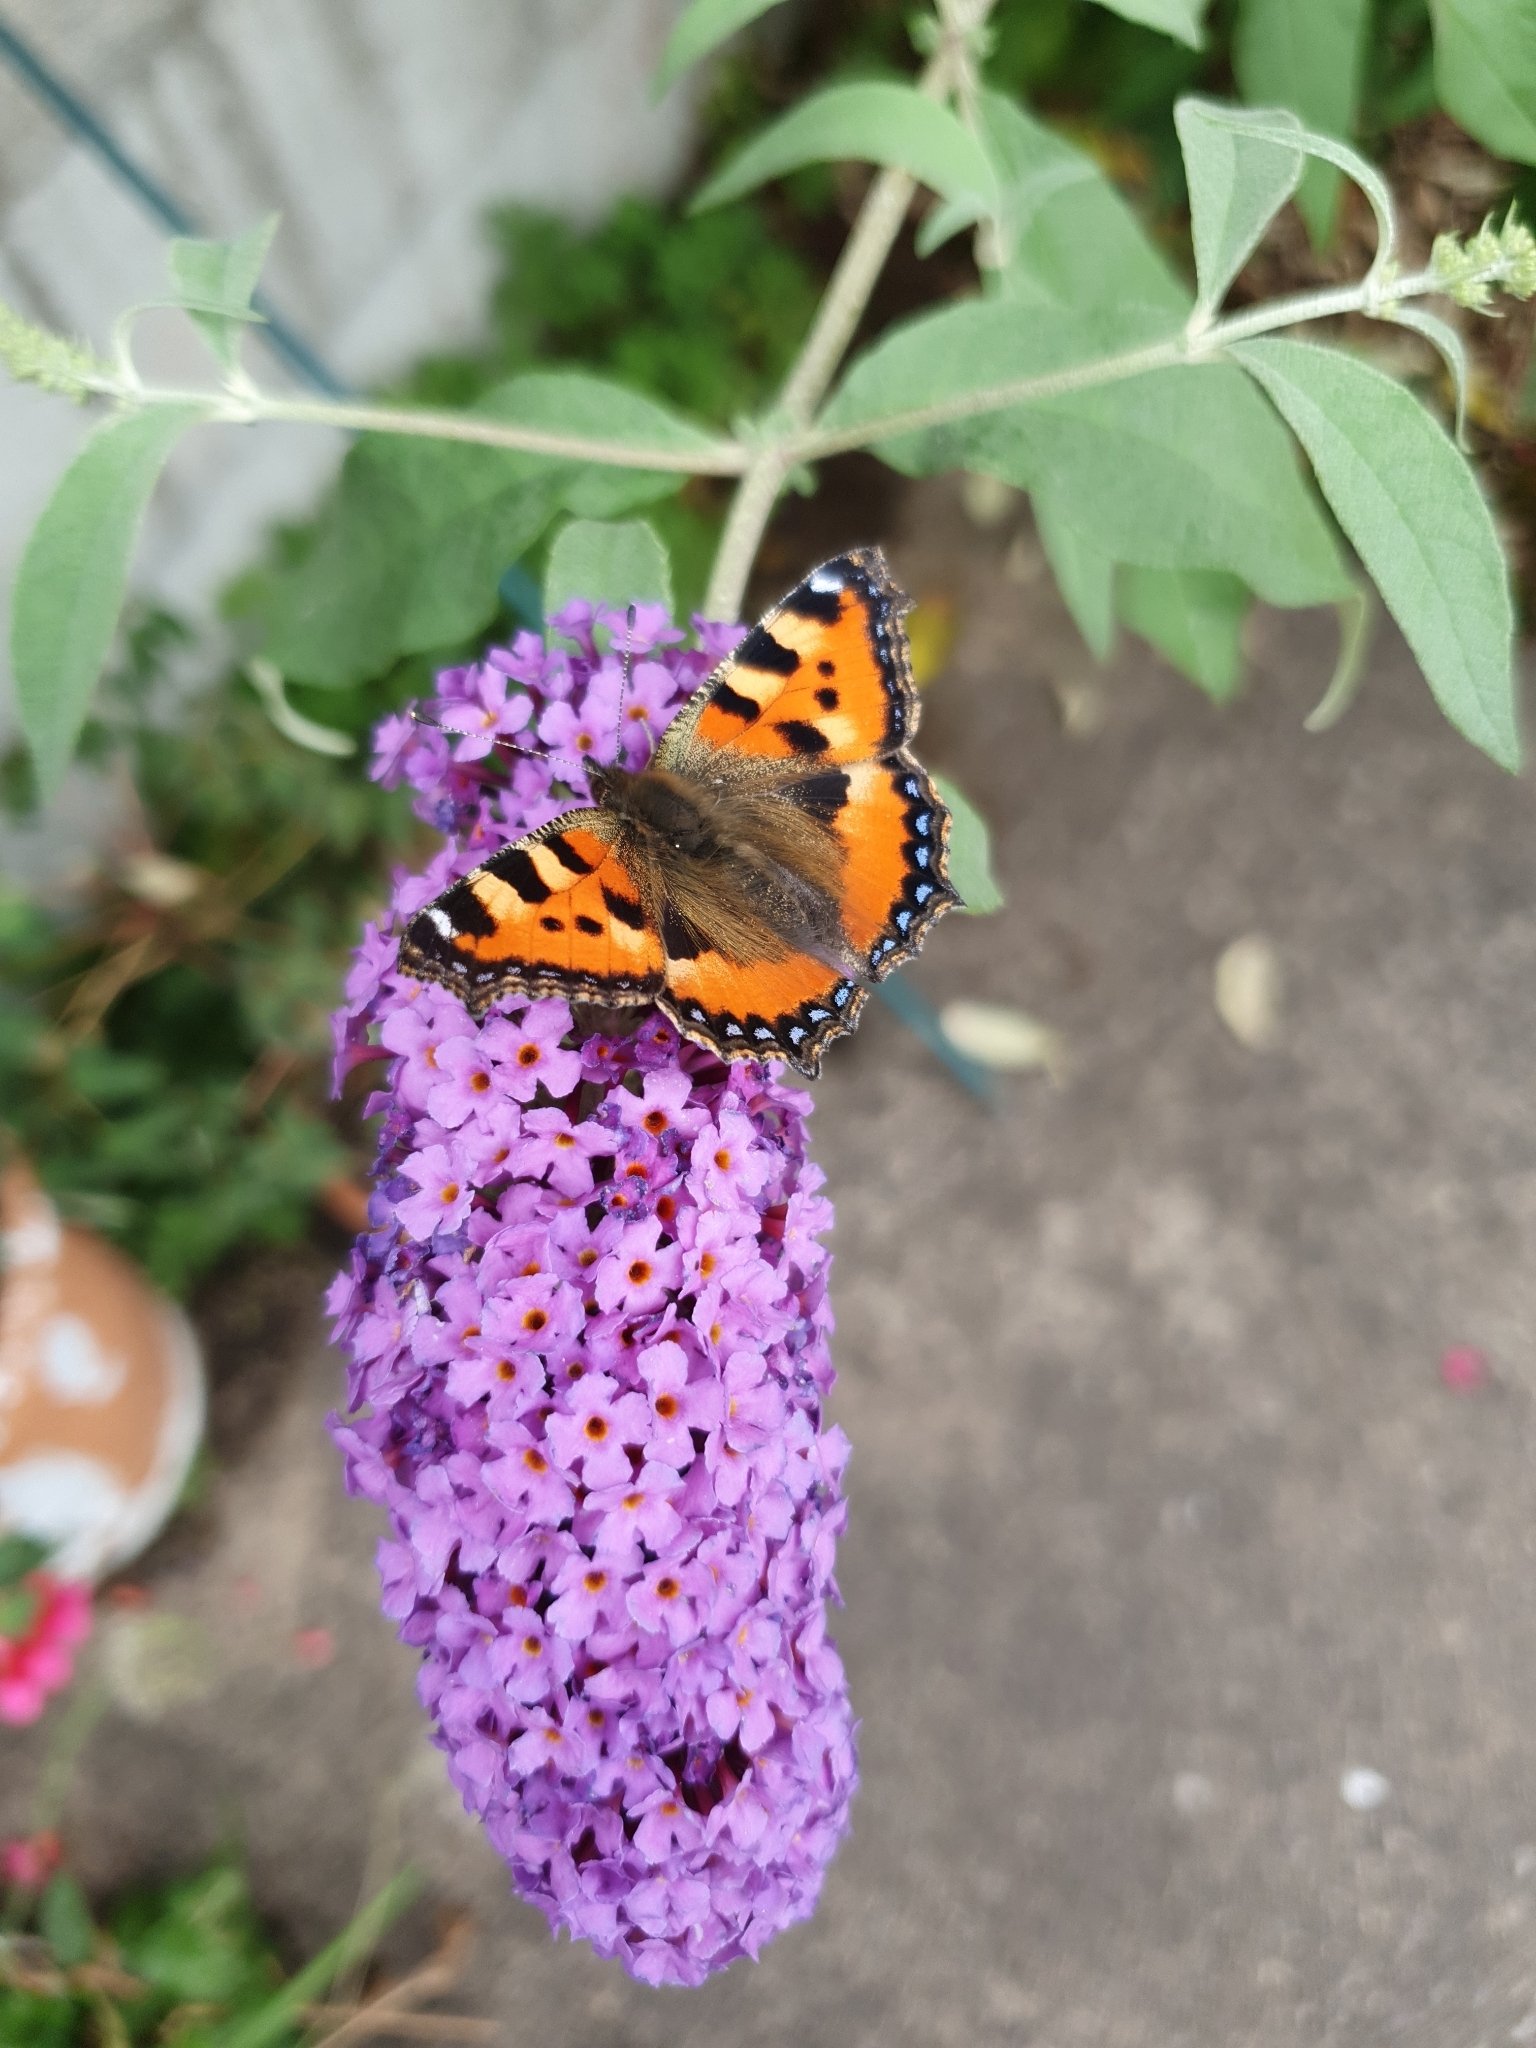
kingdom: Animalia
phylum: Arthropoda
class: Insecta
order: Lepidoptera
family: Nymphalidae
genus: Aglais
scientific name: Aglais urticae
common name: Small tortoiseshell
